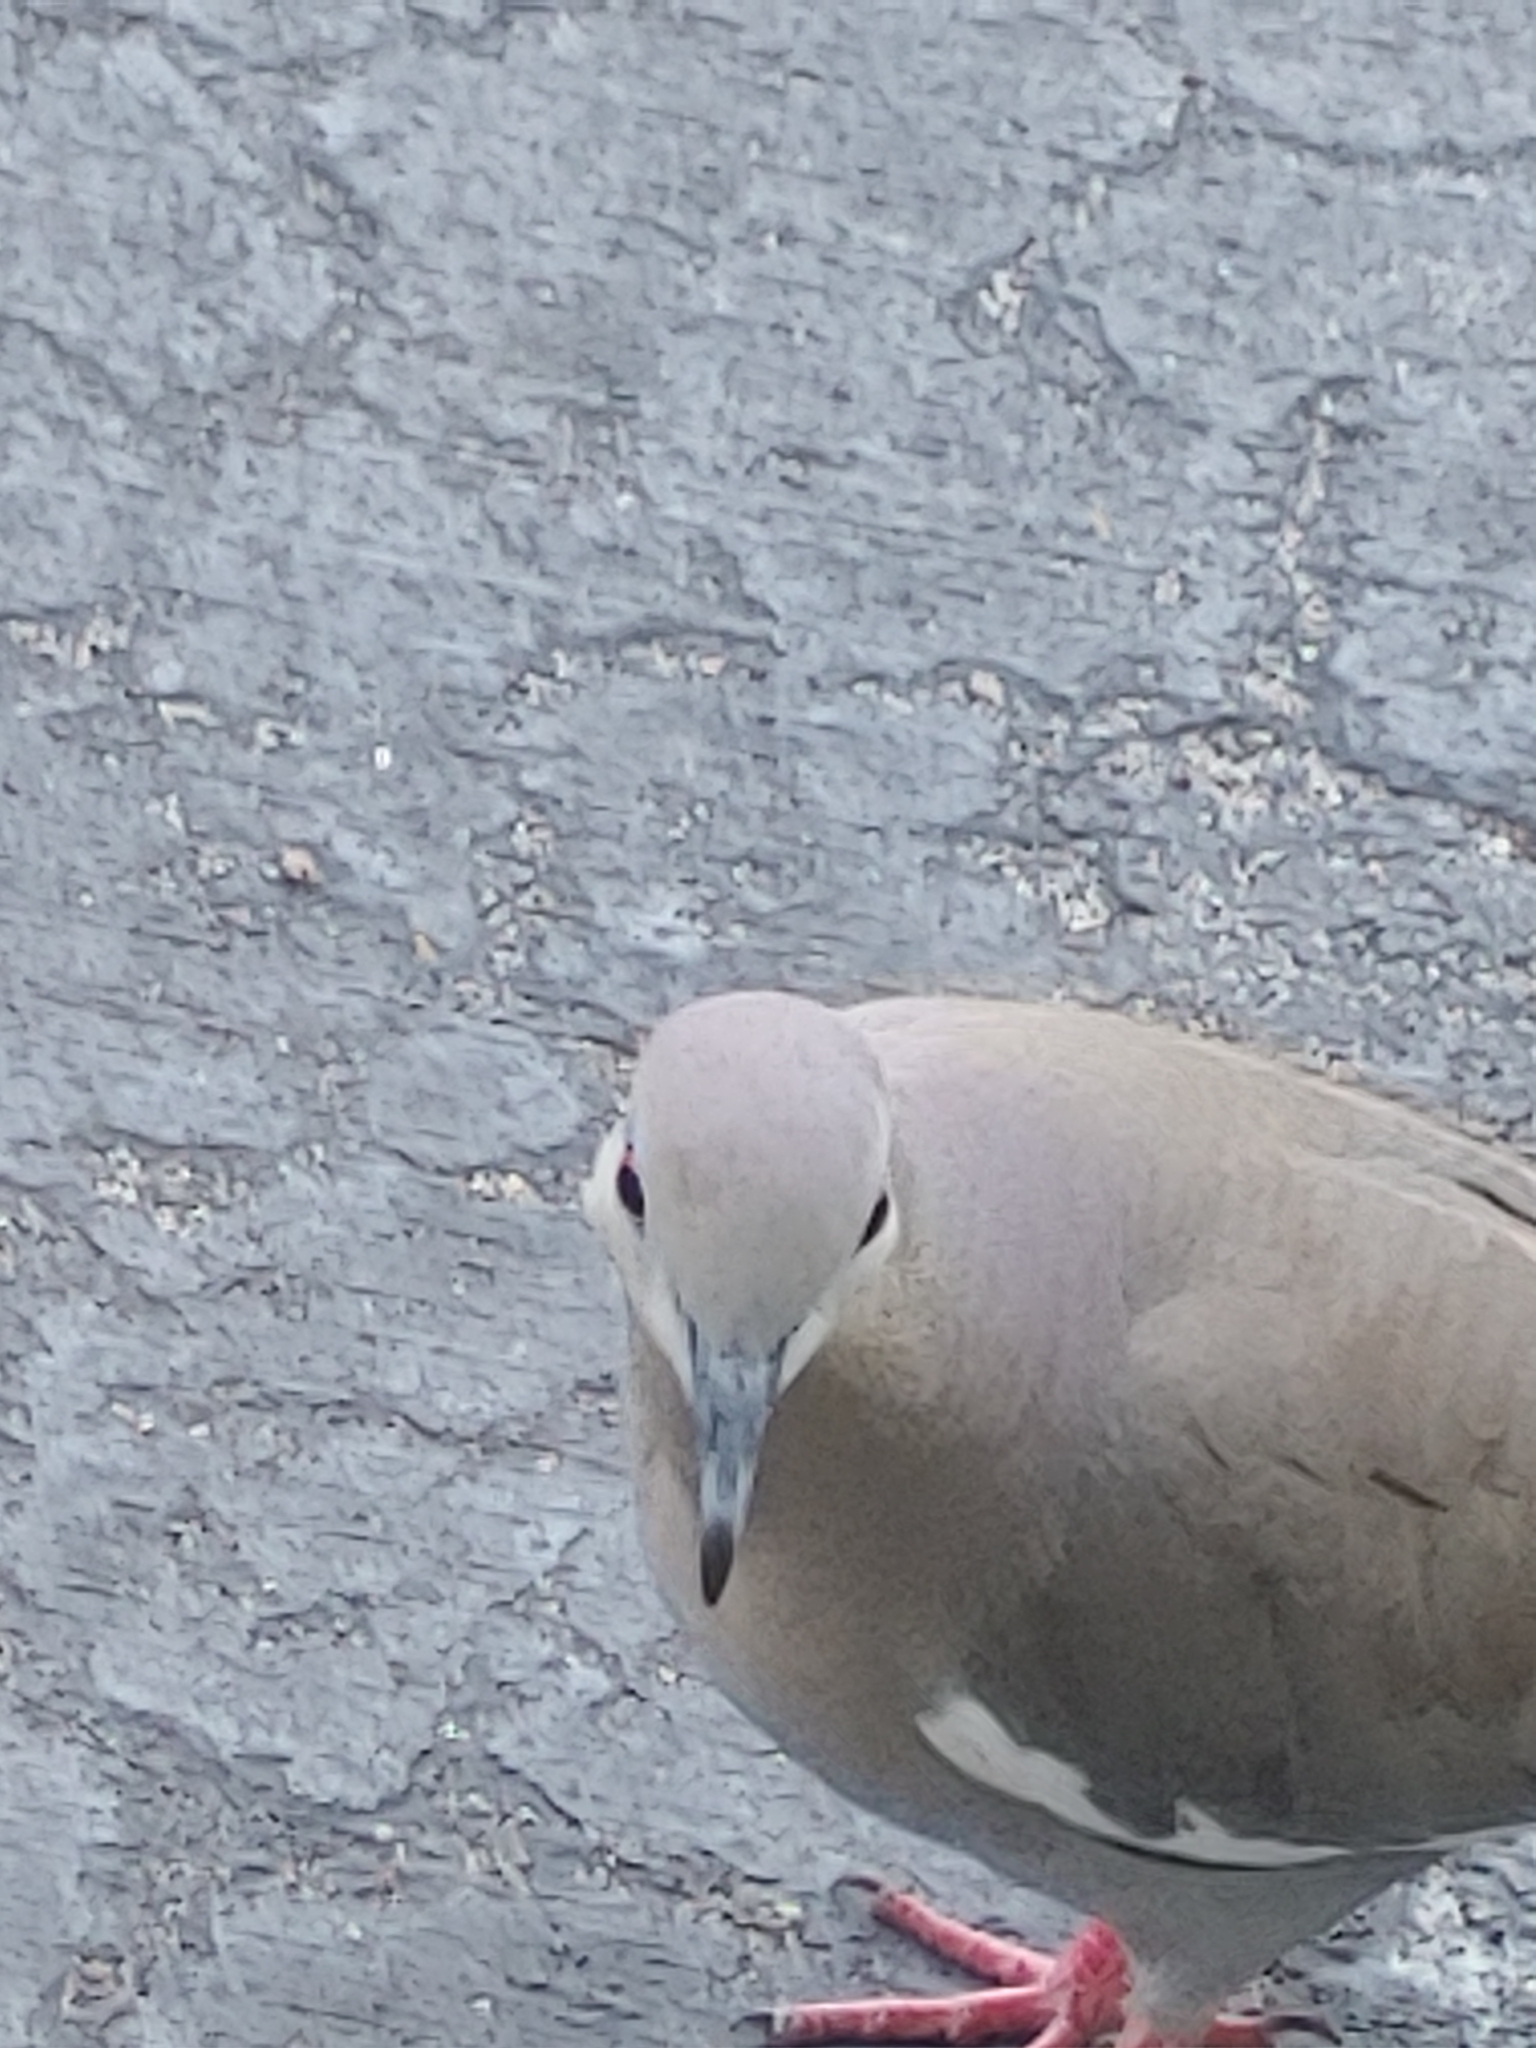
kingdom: Animalia
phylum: Chordata
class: Aves
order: Columbiformes
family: Columbidae
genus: Zenaida
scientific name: Zenaida asiatica
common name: White-winged dove
